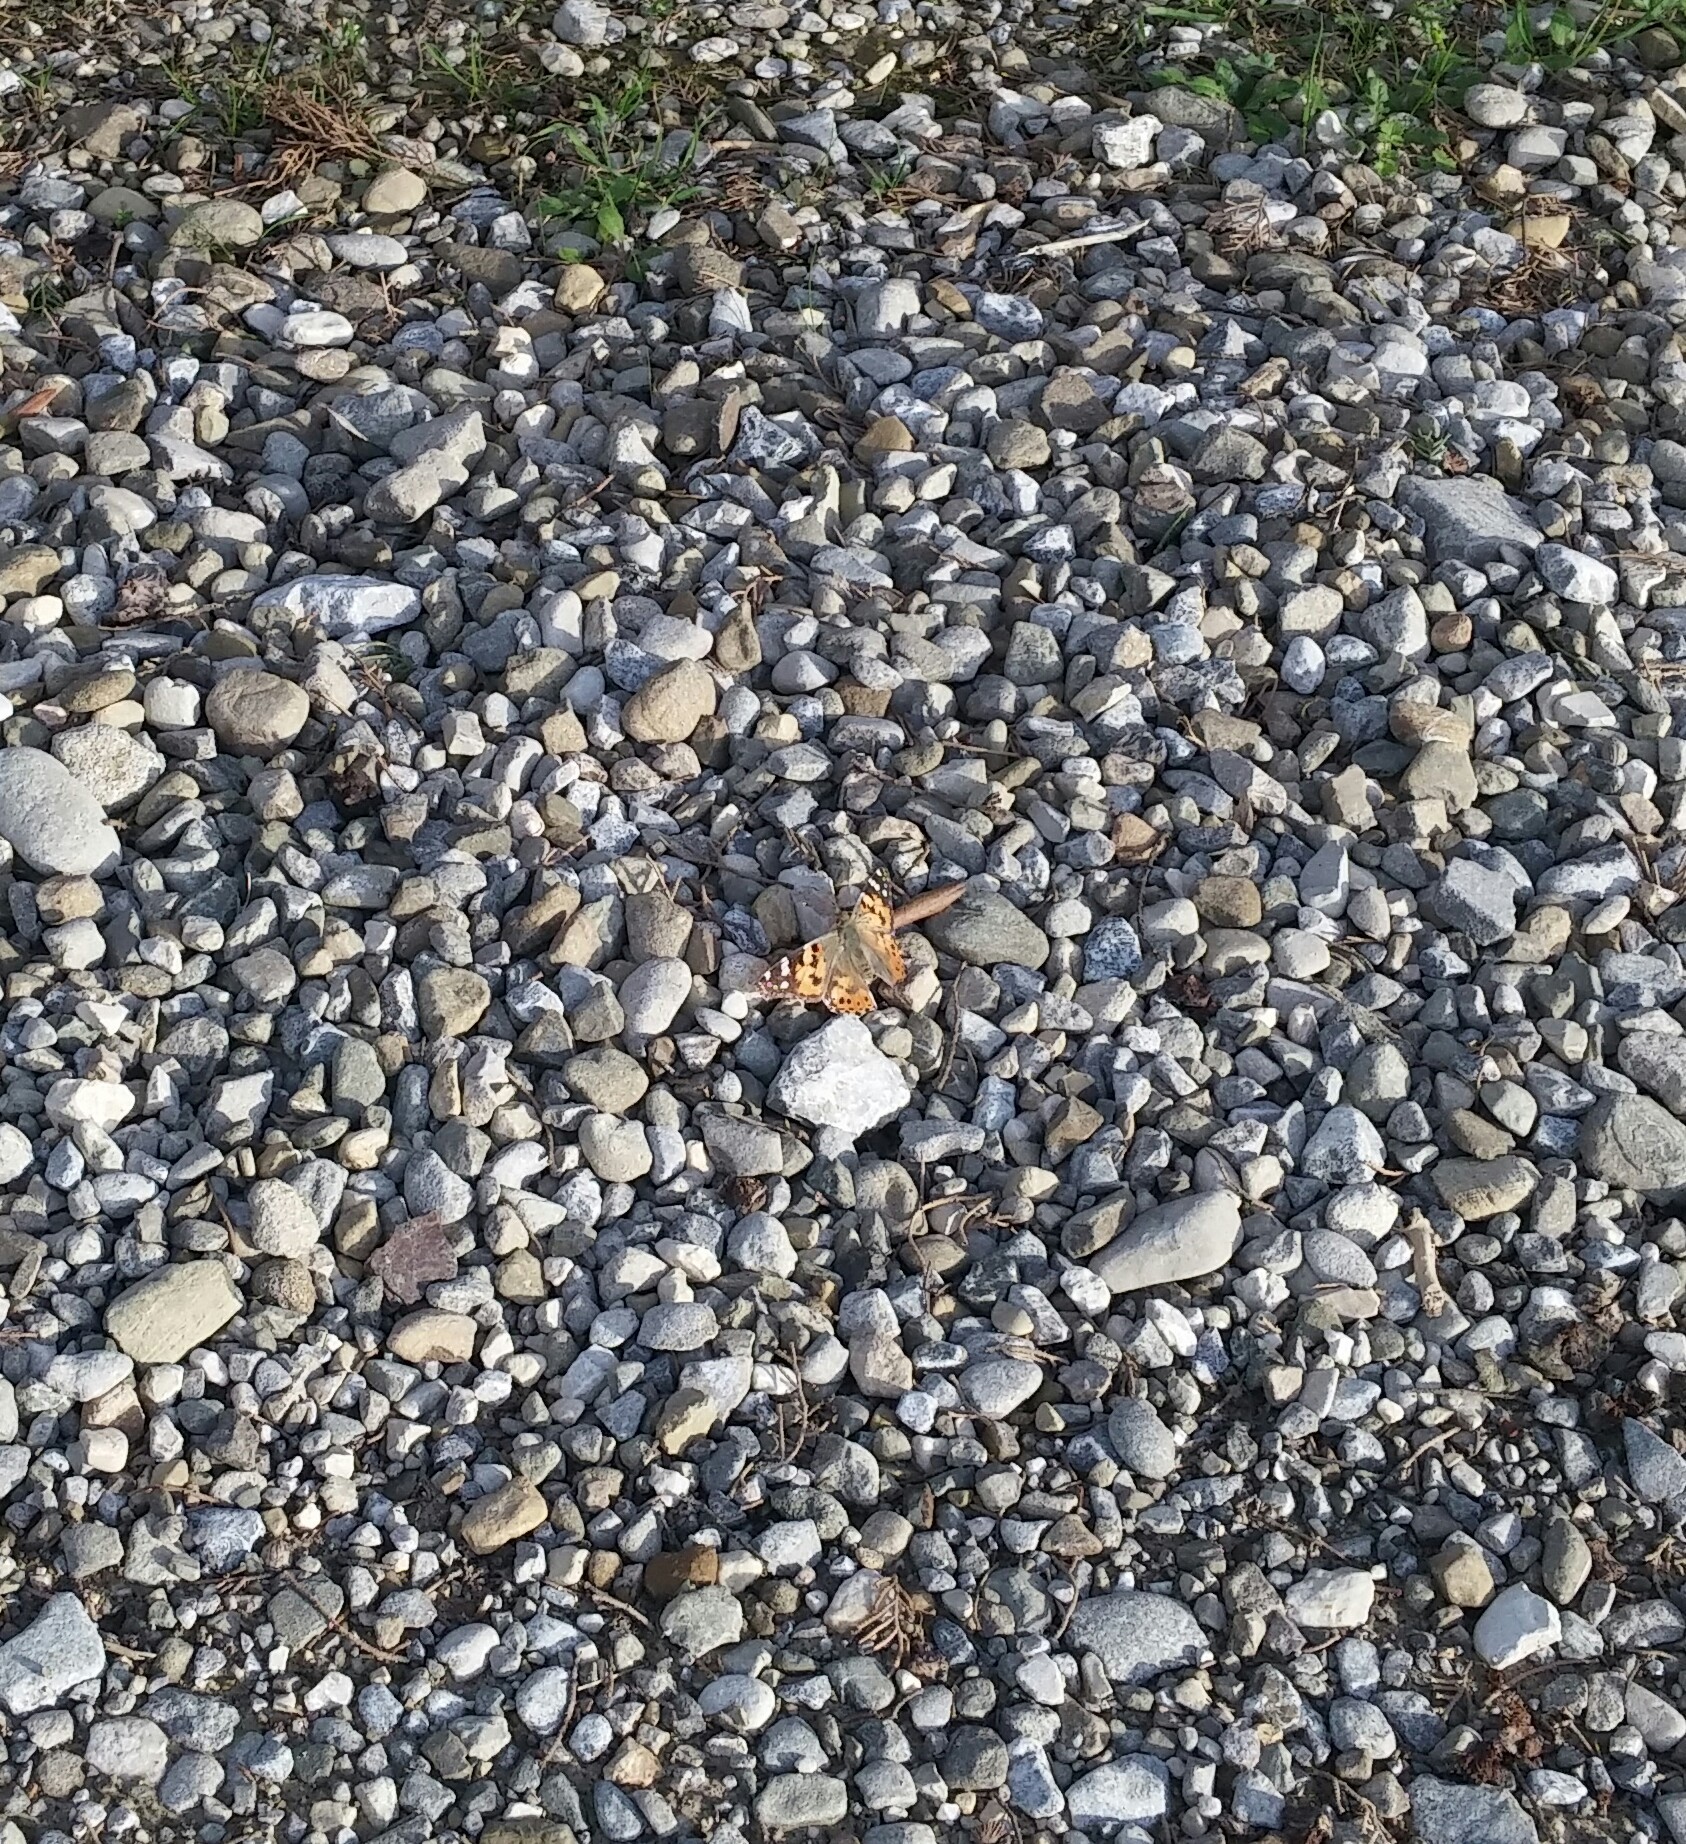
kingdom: Animalia
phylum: Arthropoda
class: Insecta
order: Lepidoptera
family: Nymphalidae
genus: Vanessa
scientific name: Vanessa cardui
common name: Painted lady
